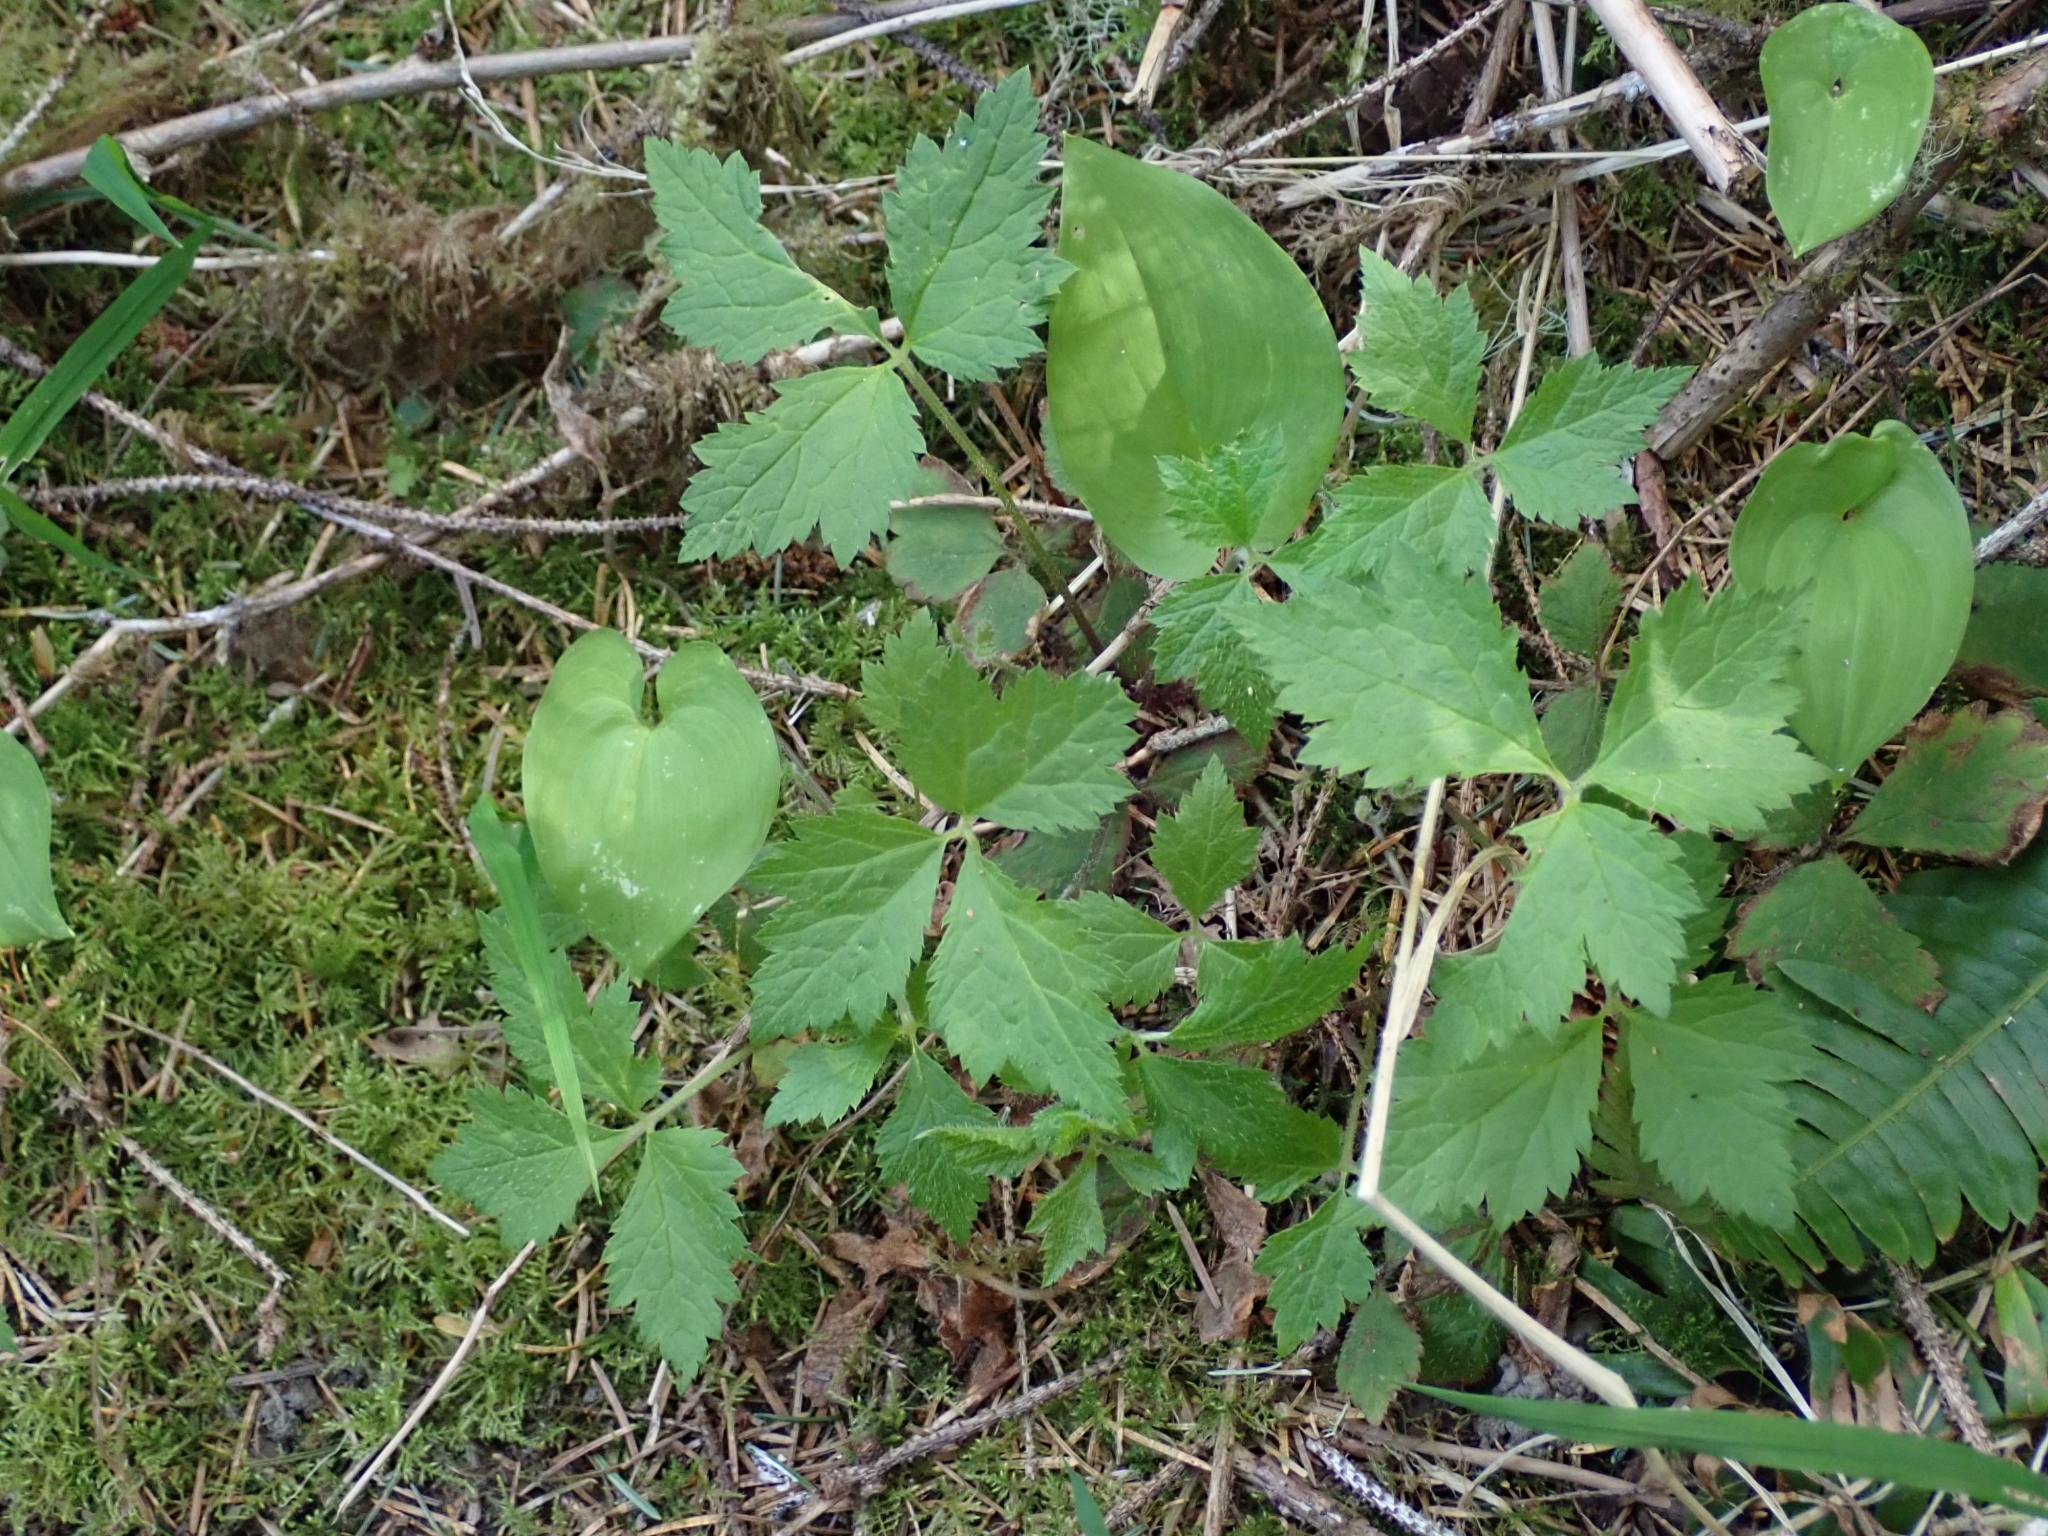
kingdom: Plantae
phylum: Tracheophyta
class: Magnoliopsida
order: Saxifragales
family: Saxifragaceae
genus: Tiarella
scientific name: Tiarella trifoliata
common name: Sugar-scoop
